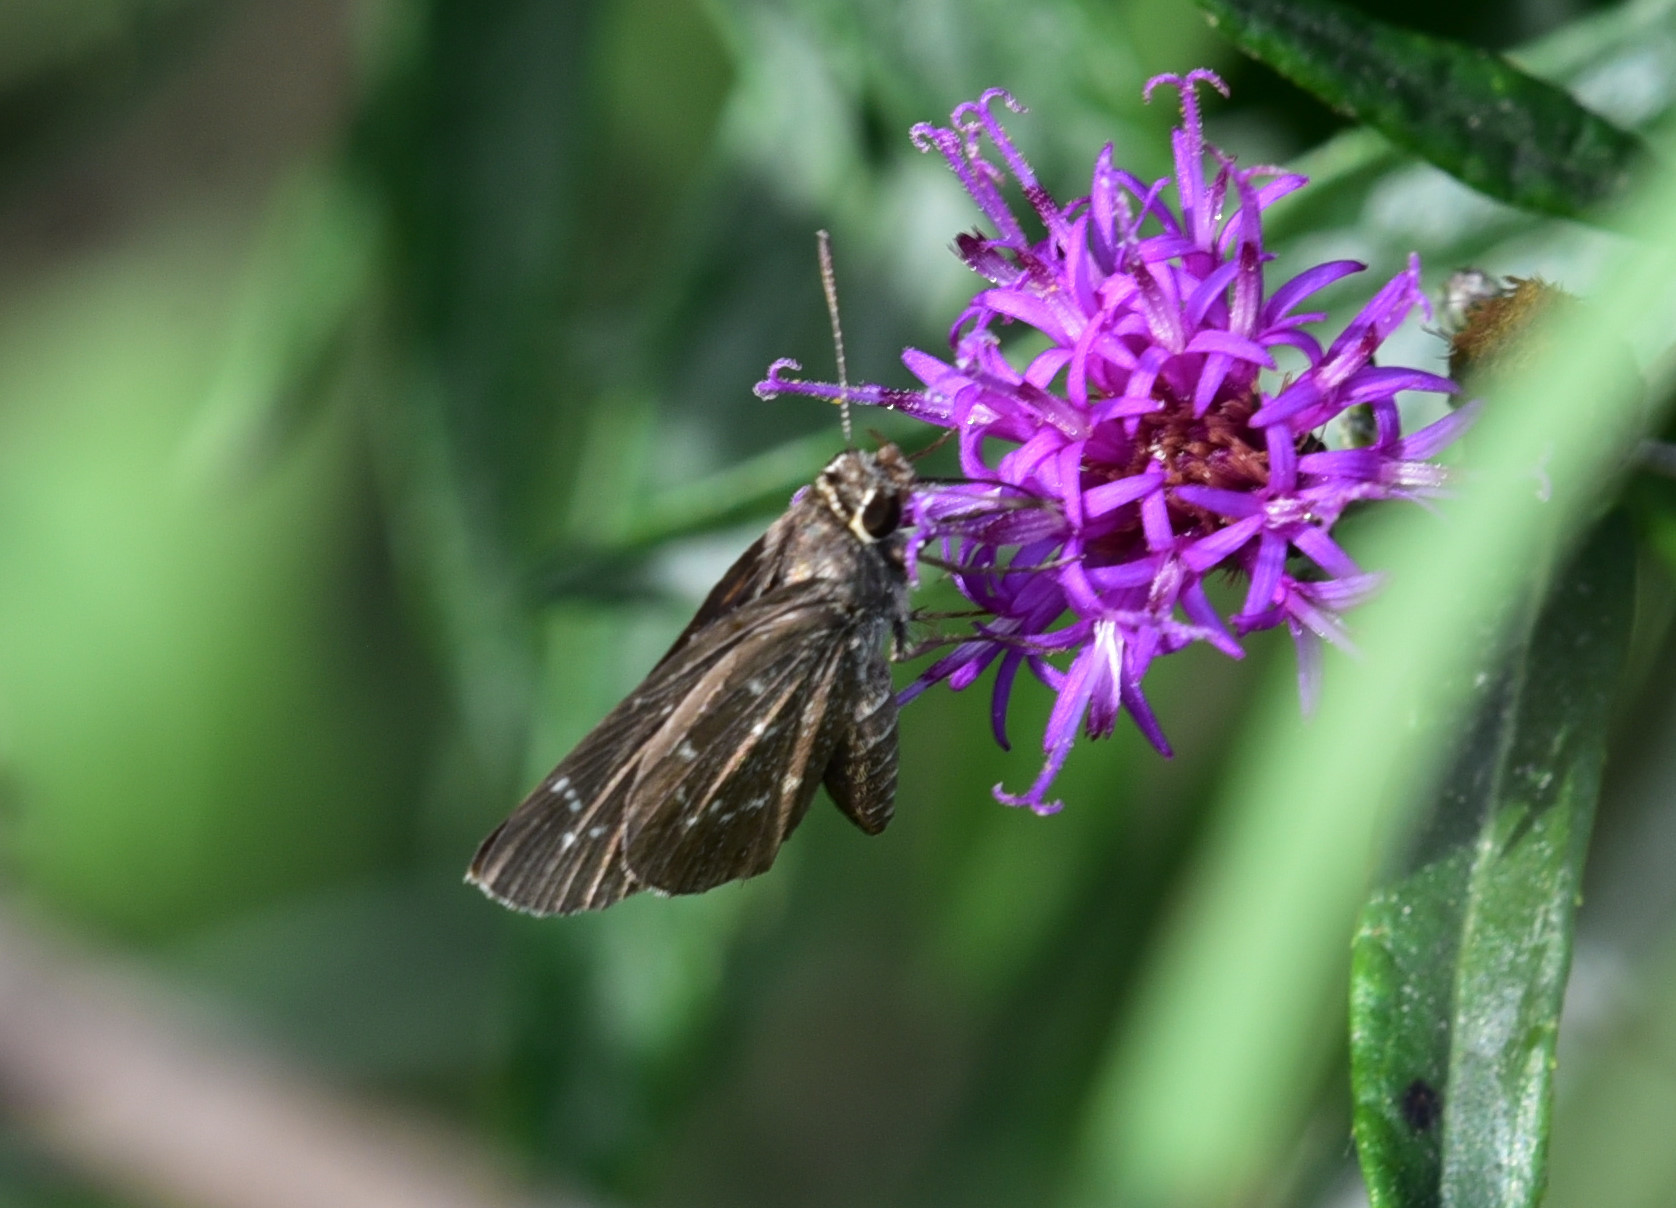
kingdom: Animalia
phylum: Arthropoda
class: Insecta
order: Lepidoptera
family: Hesperiidae
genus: Mastor
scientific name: Mastor celia
